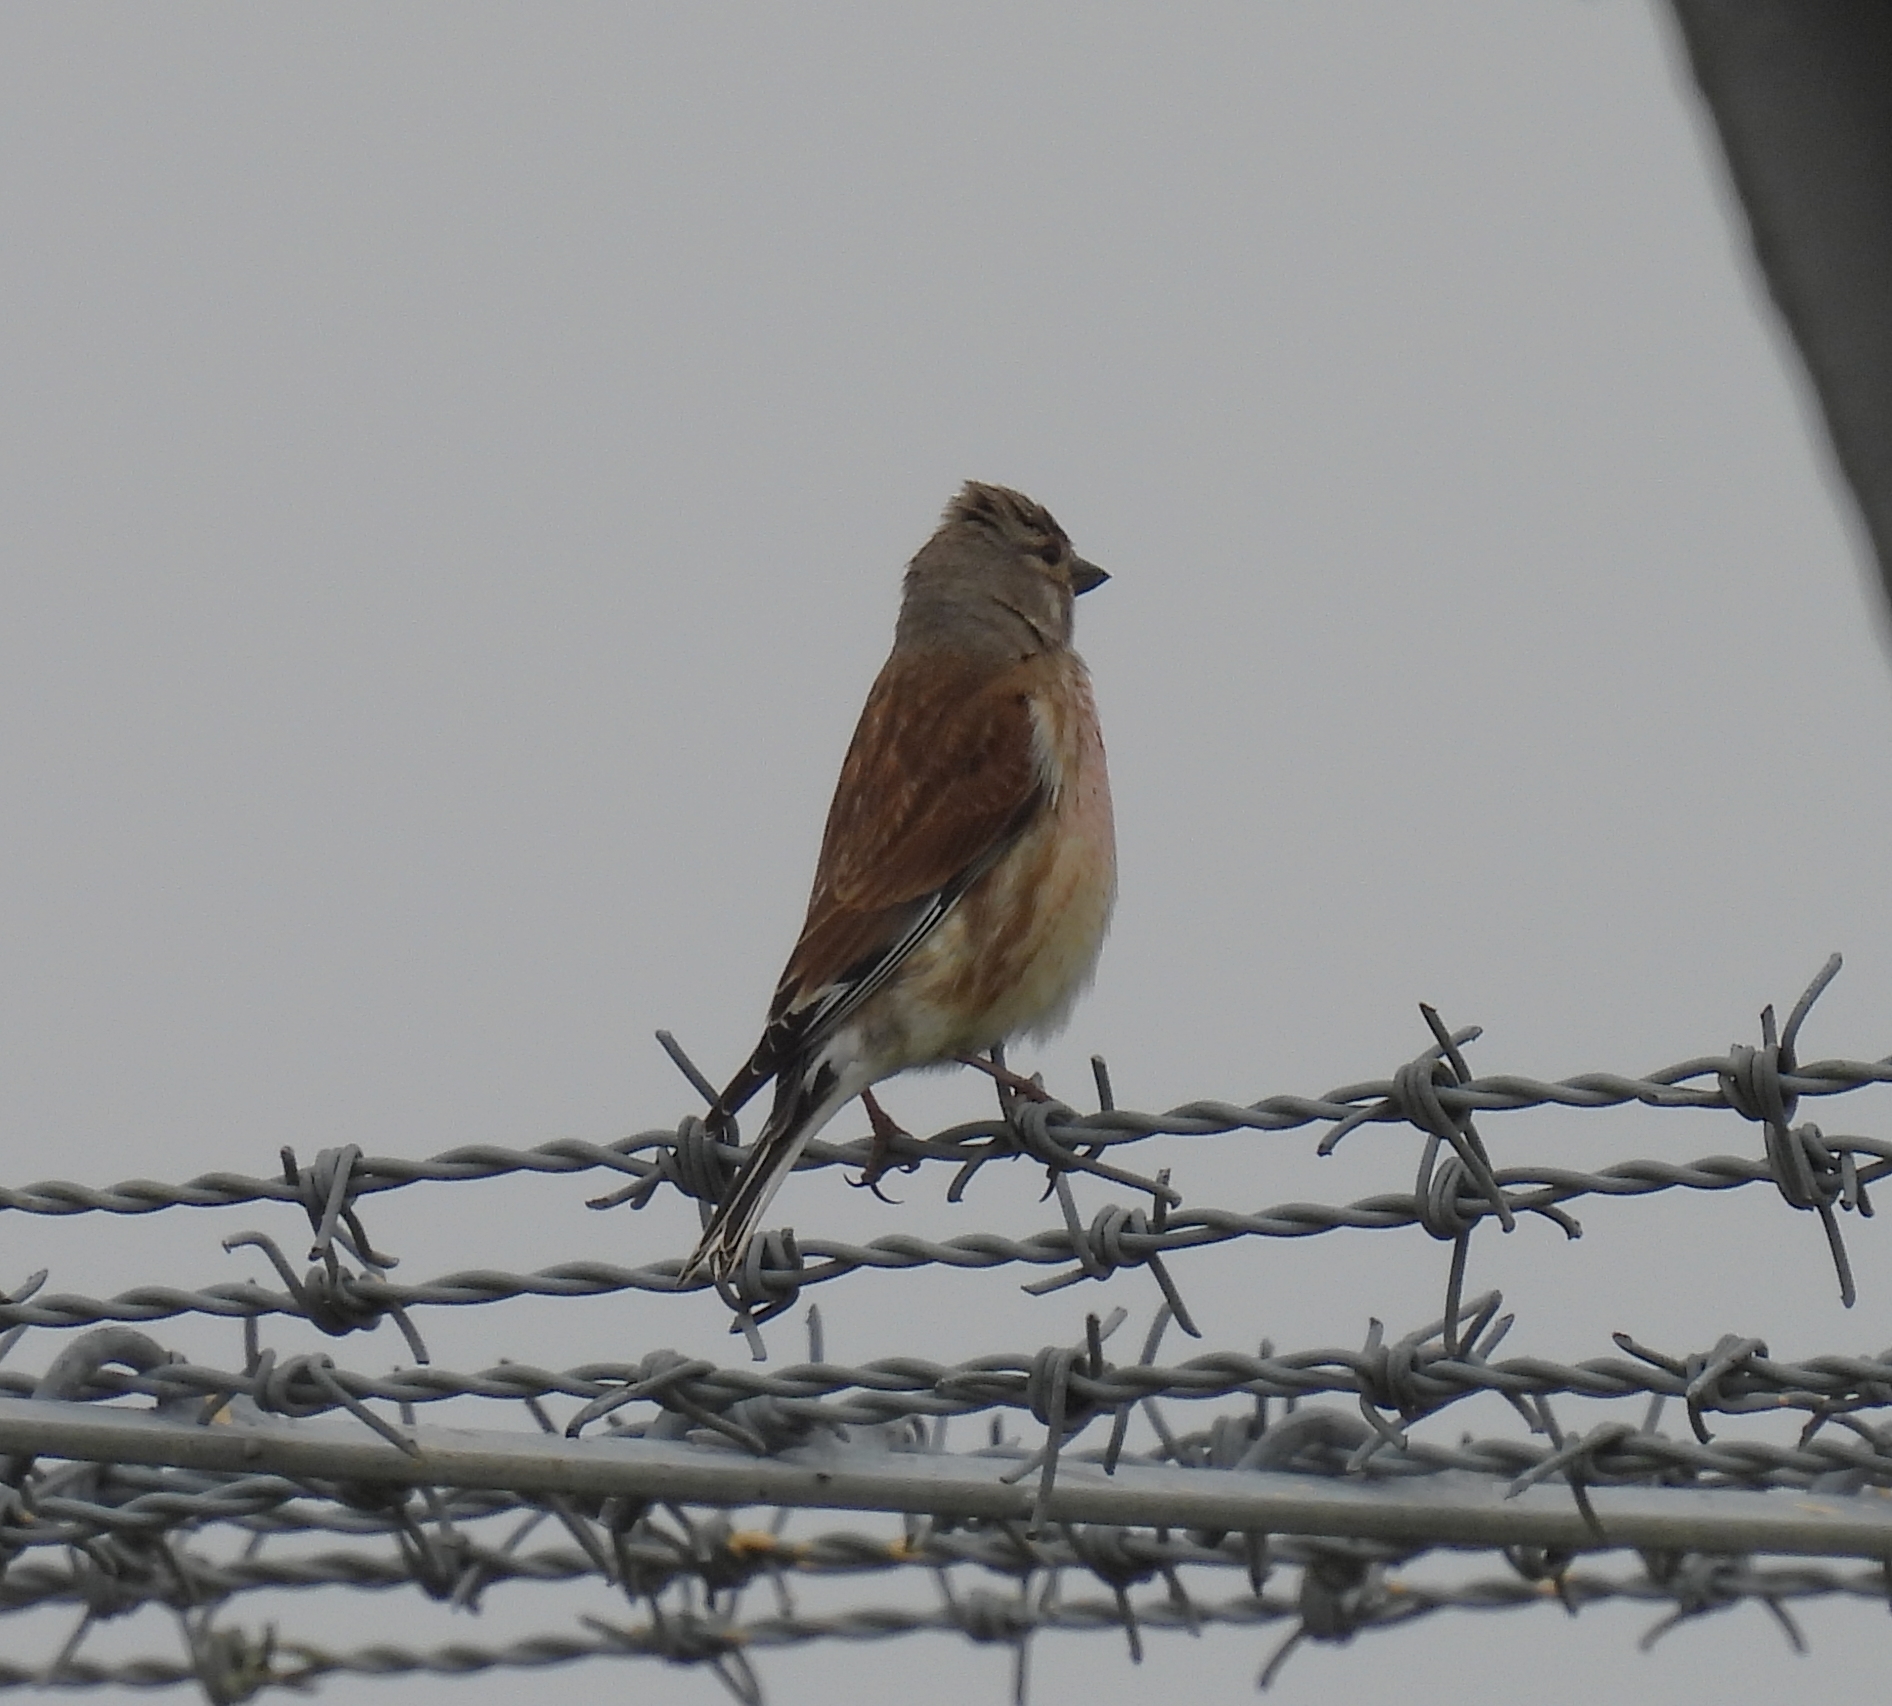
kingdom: Animalia
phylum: Chordata
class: Aves
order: Passeriformes
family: Fringillidae
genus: Linaria
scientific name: Linaria cannabina
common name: Common linnet
